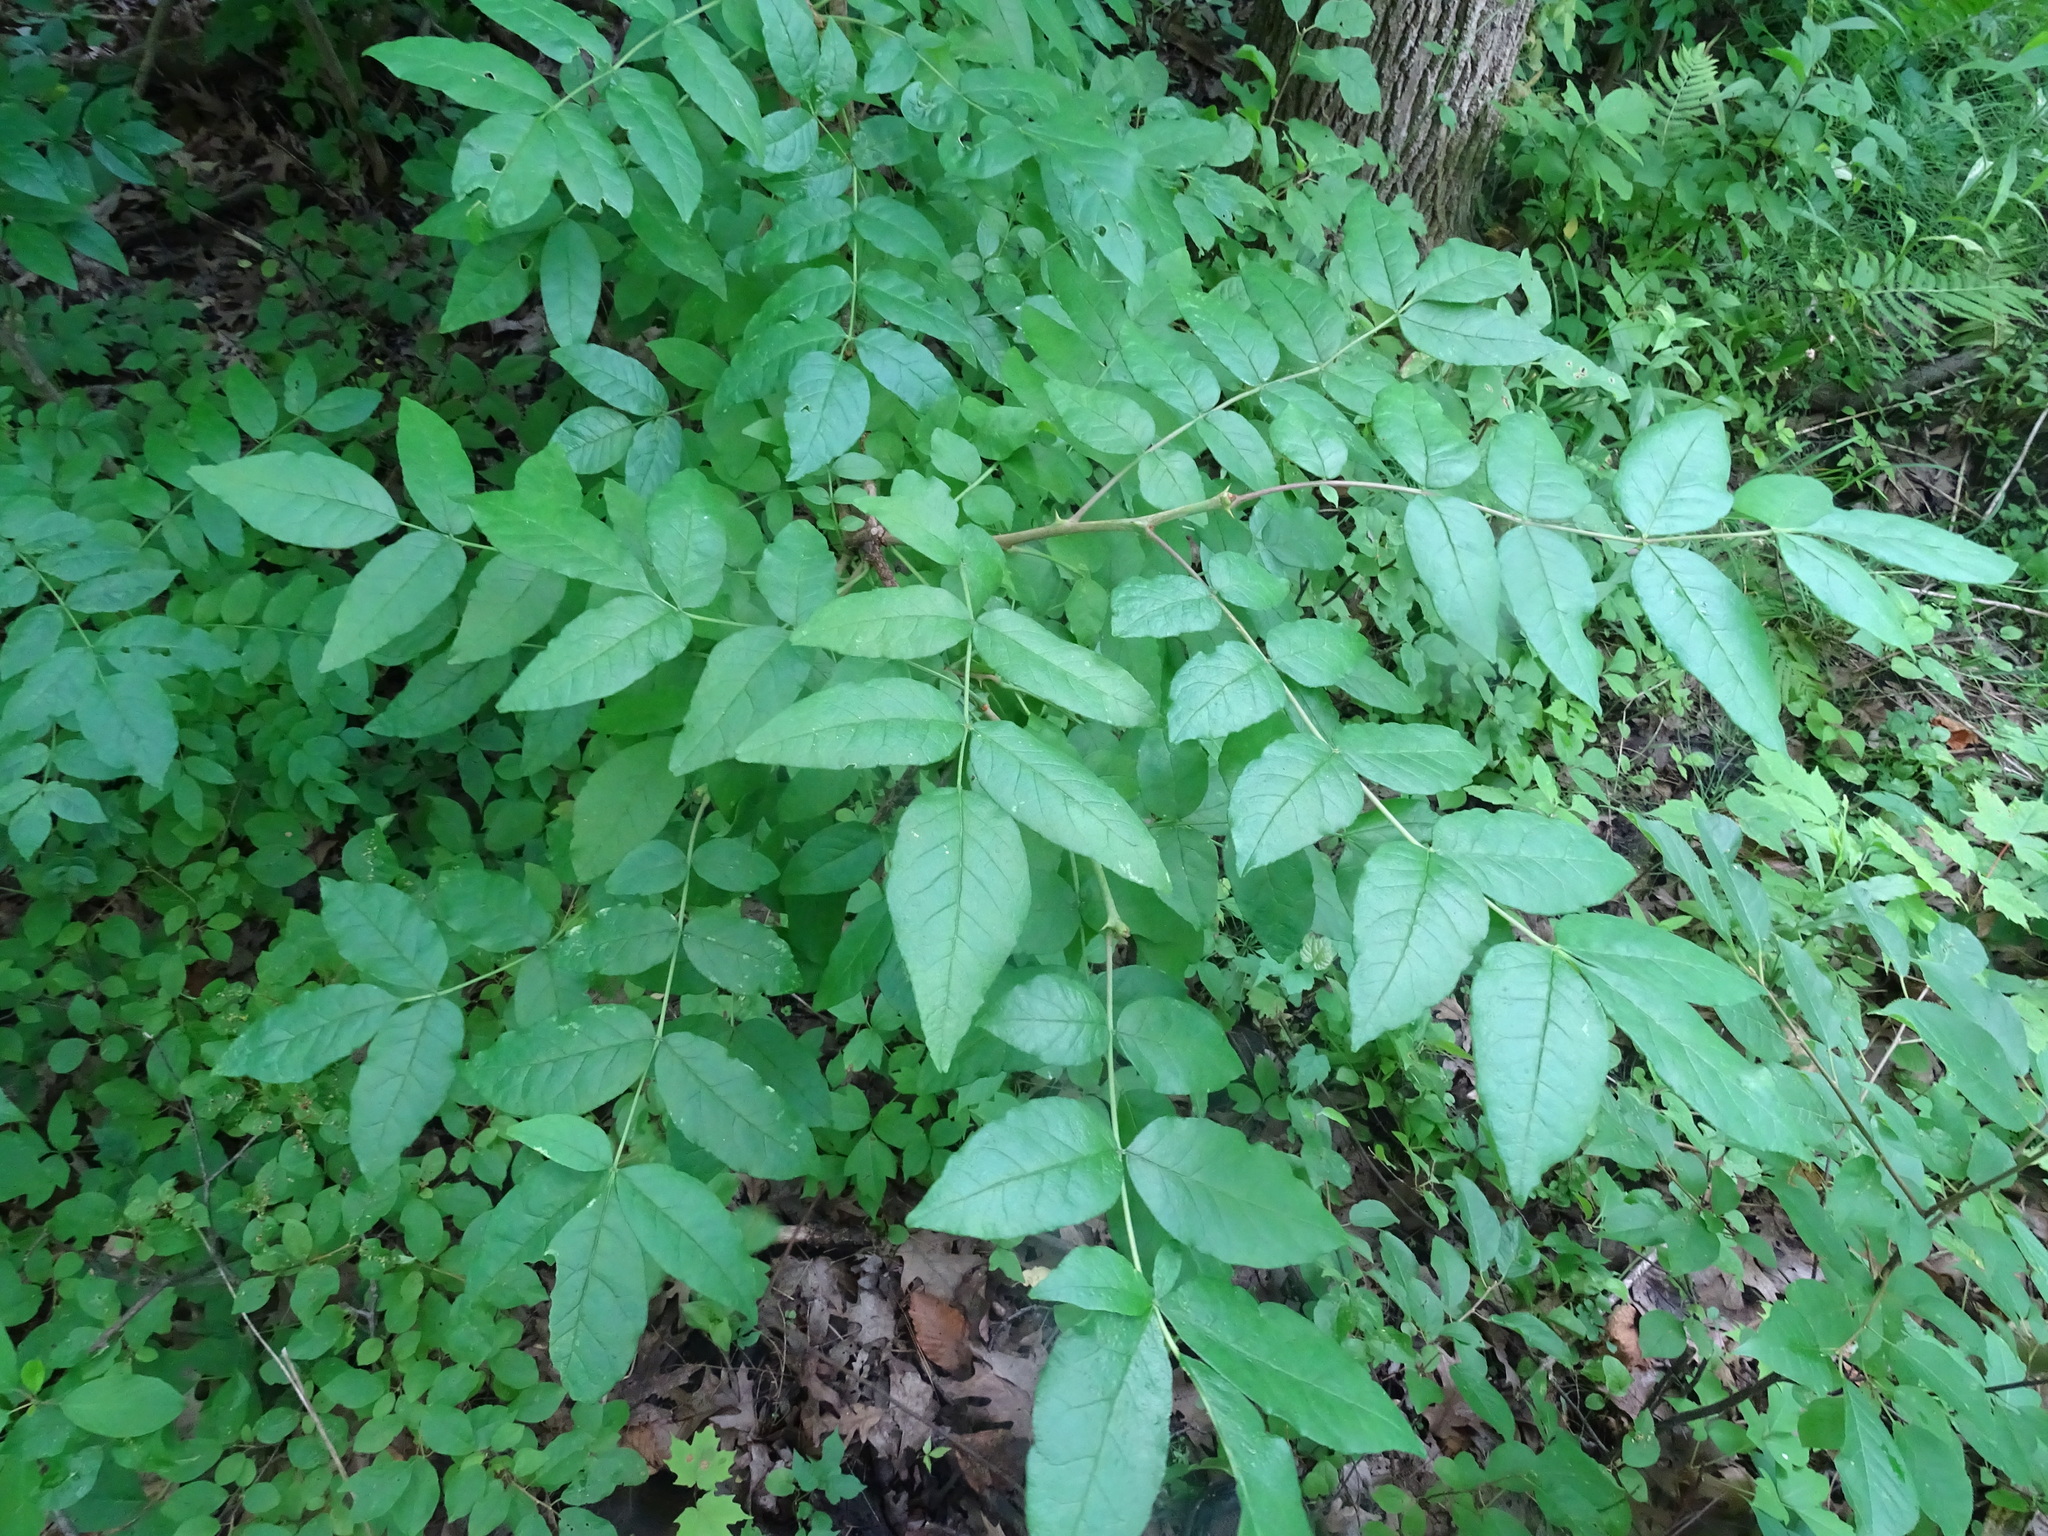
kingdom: Plantae
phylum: Tracheophyta
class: Magnoliopsida
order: Sapindales
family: Rutaceae
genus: Zanthoxylum
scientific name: Zanthoxylum americanum
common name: Northern prickly-ash
